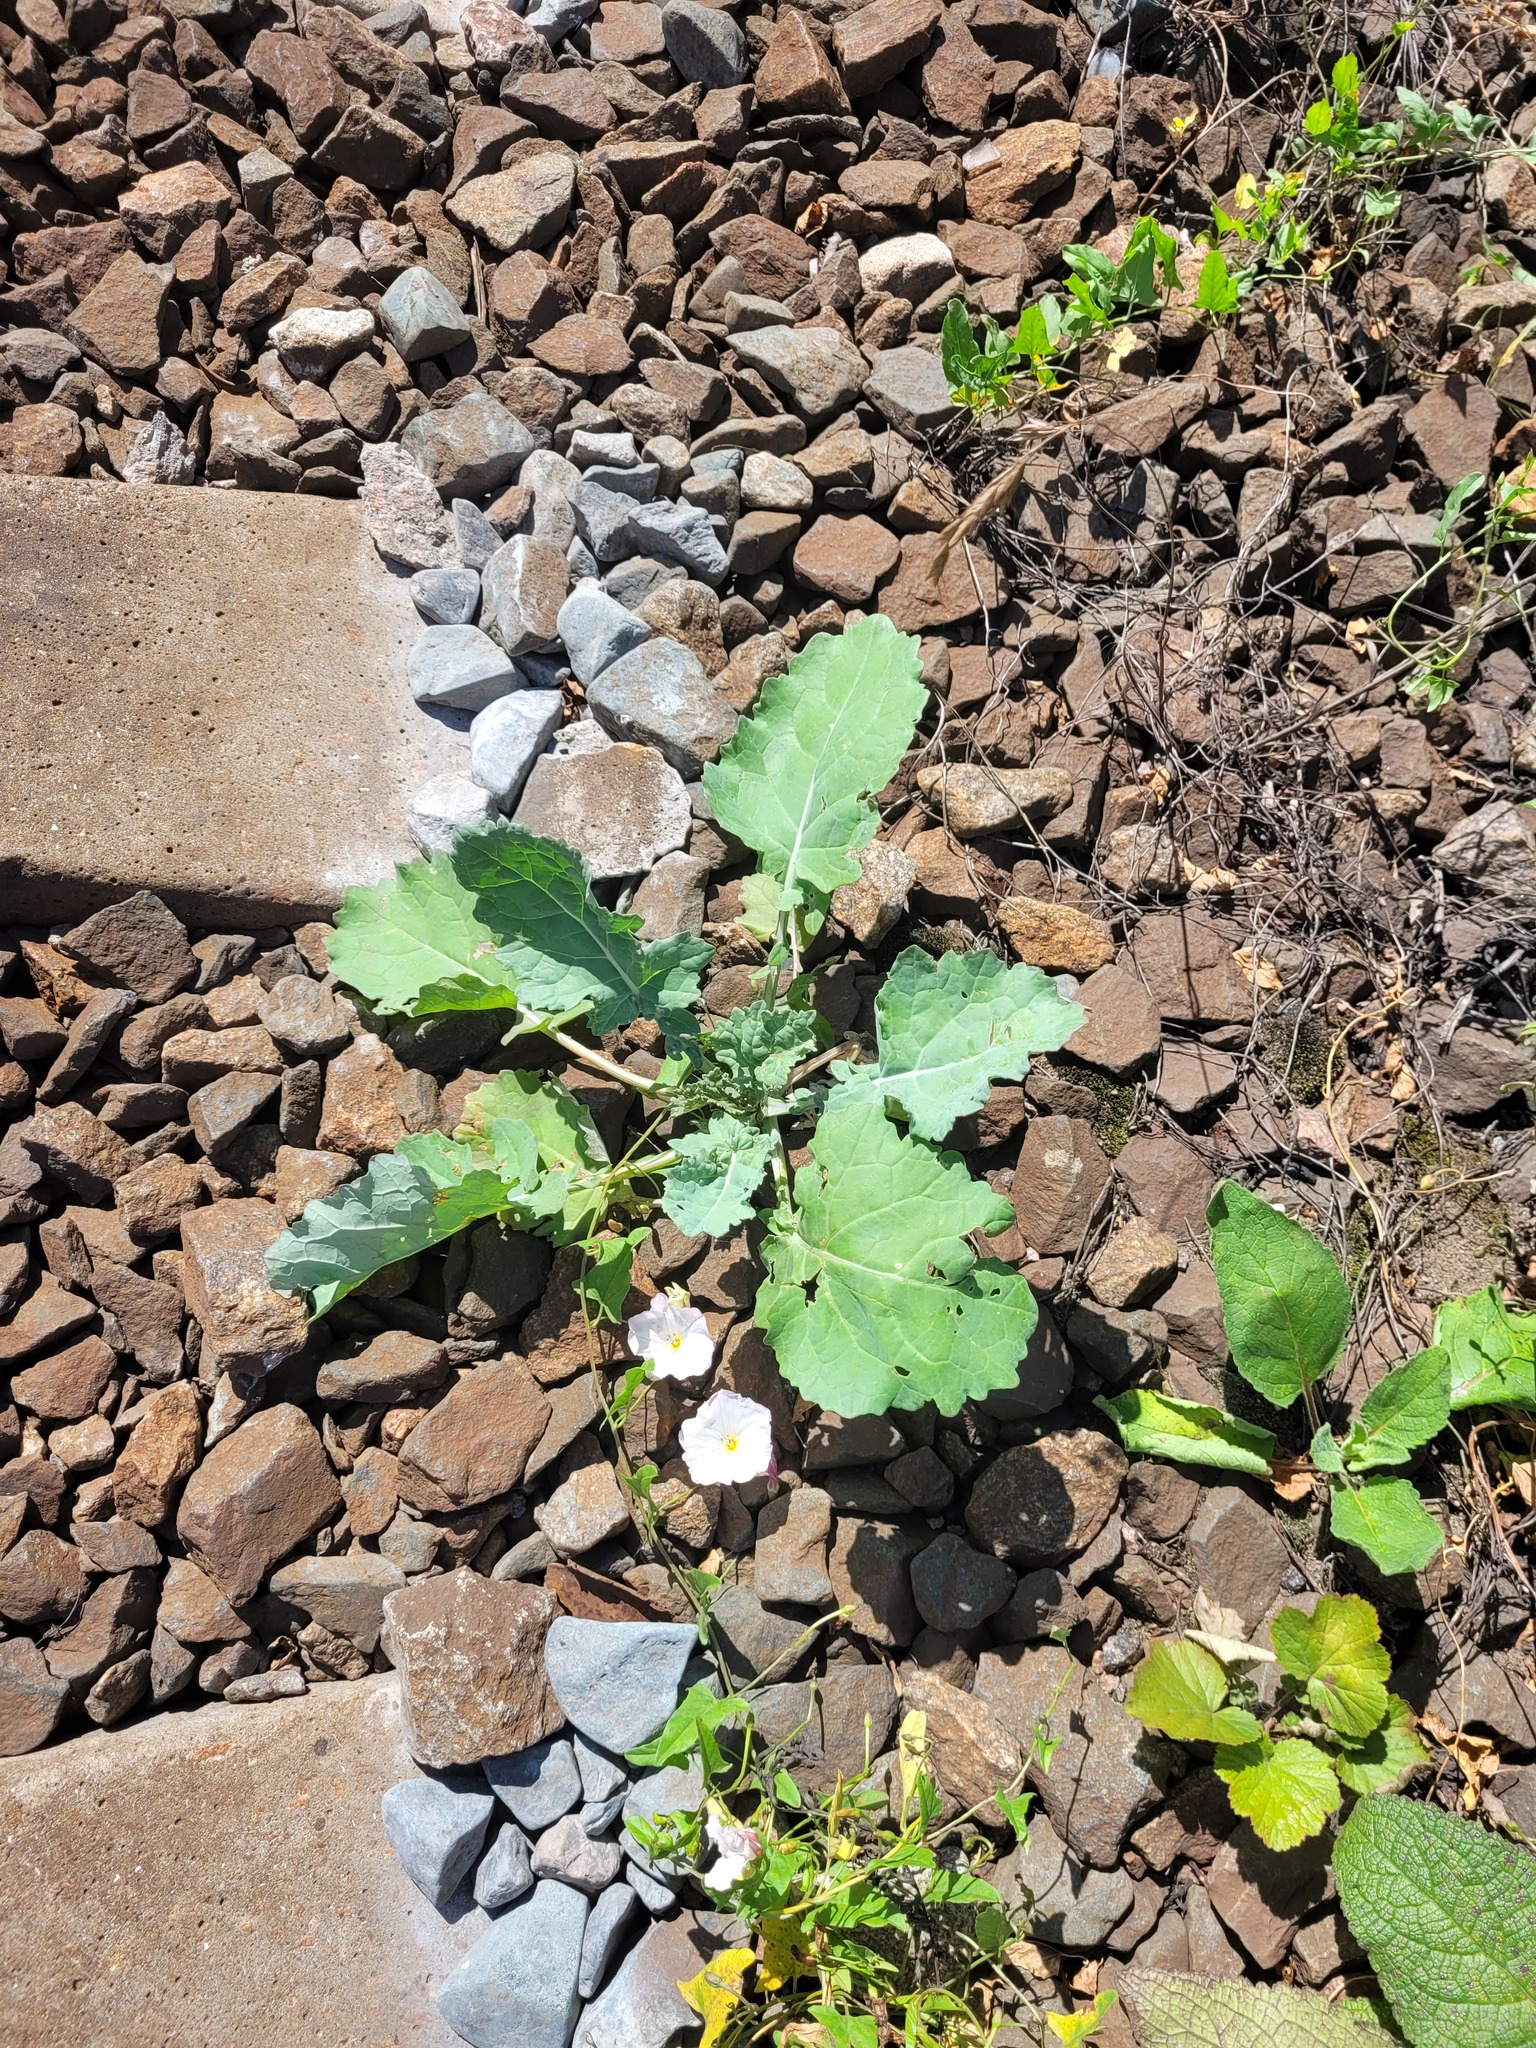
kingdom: Plantae
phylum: Tracheophyta
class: Magnoliopsida
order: Brassicales
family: Brassicaceae
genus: Brassica
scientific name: Brassica napus
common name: Rape
